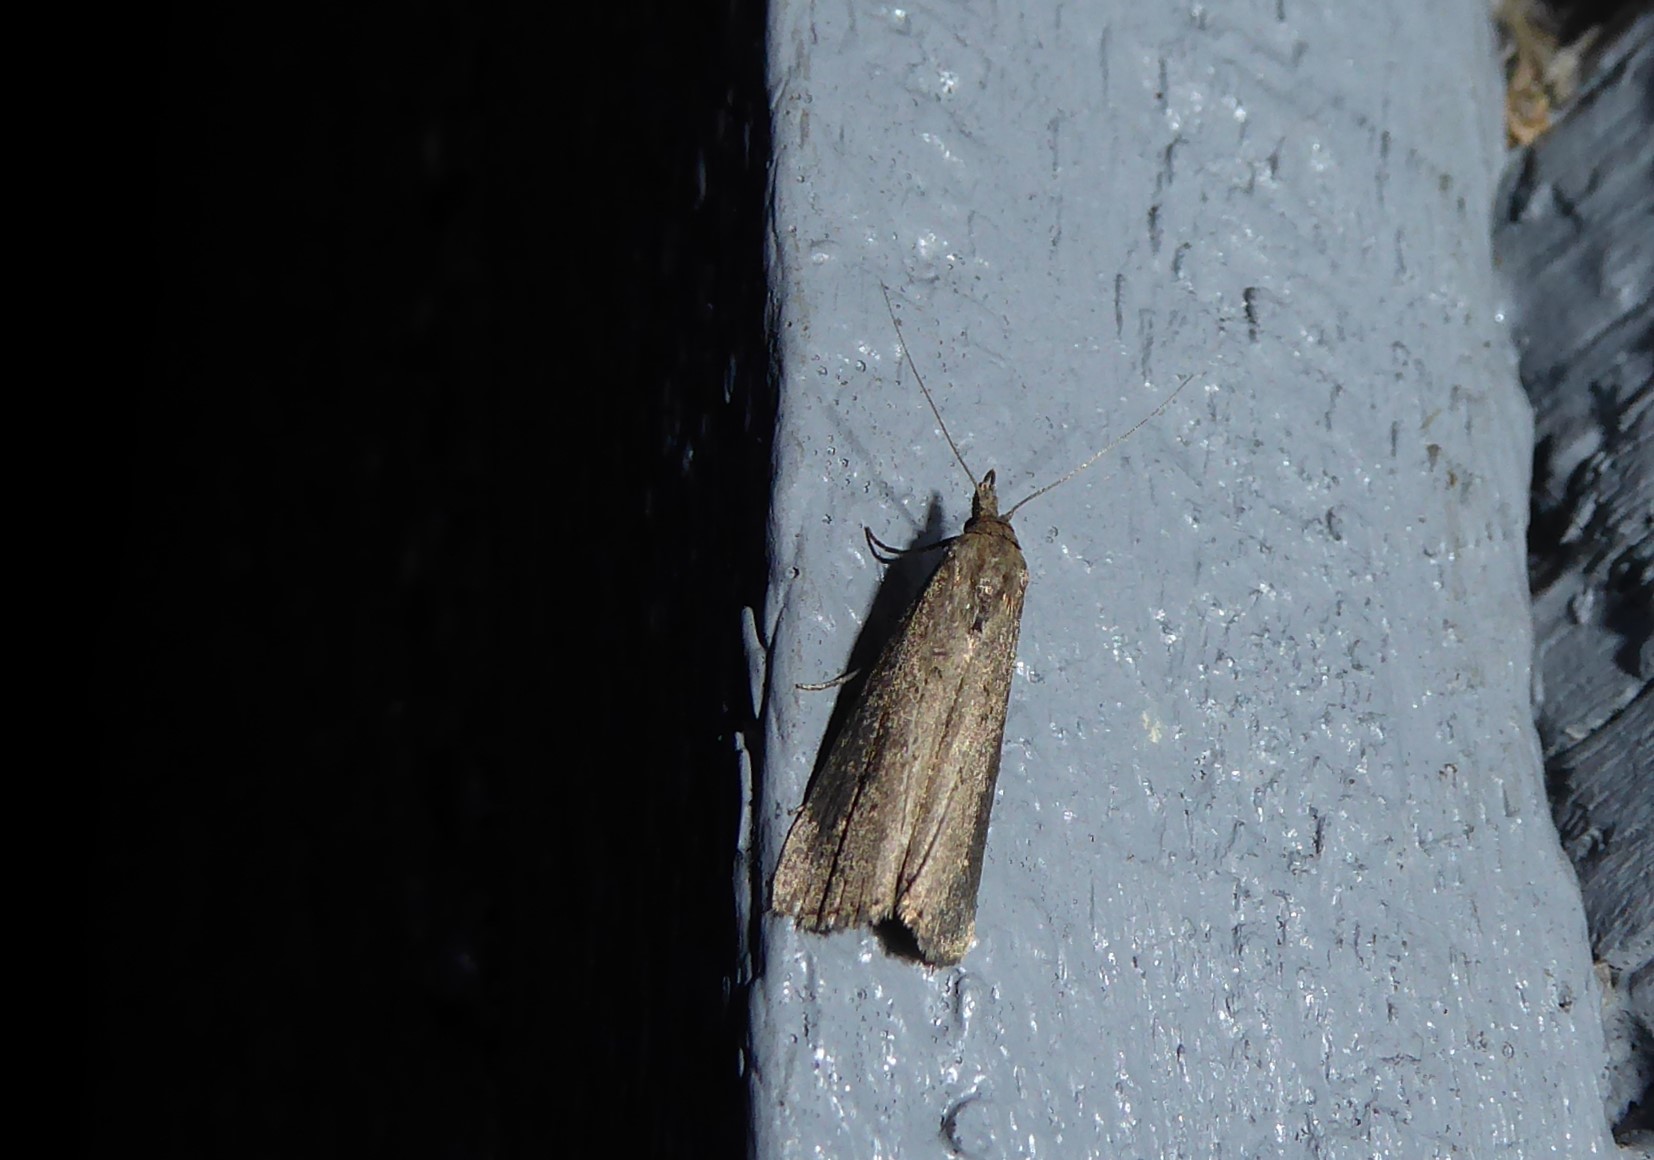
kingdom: Animalia
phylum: Arthropoda
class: Insecta
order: Lepidoptera
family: Erebidae
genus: Schrankia
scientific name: Schrankia costaestrigalis
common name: Pinion-streaked snout
